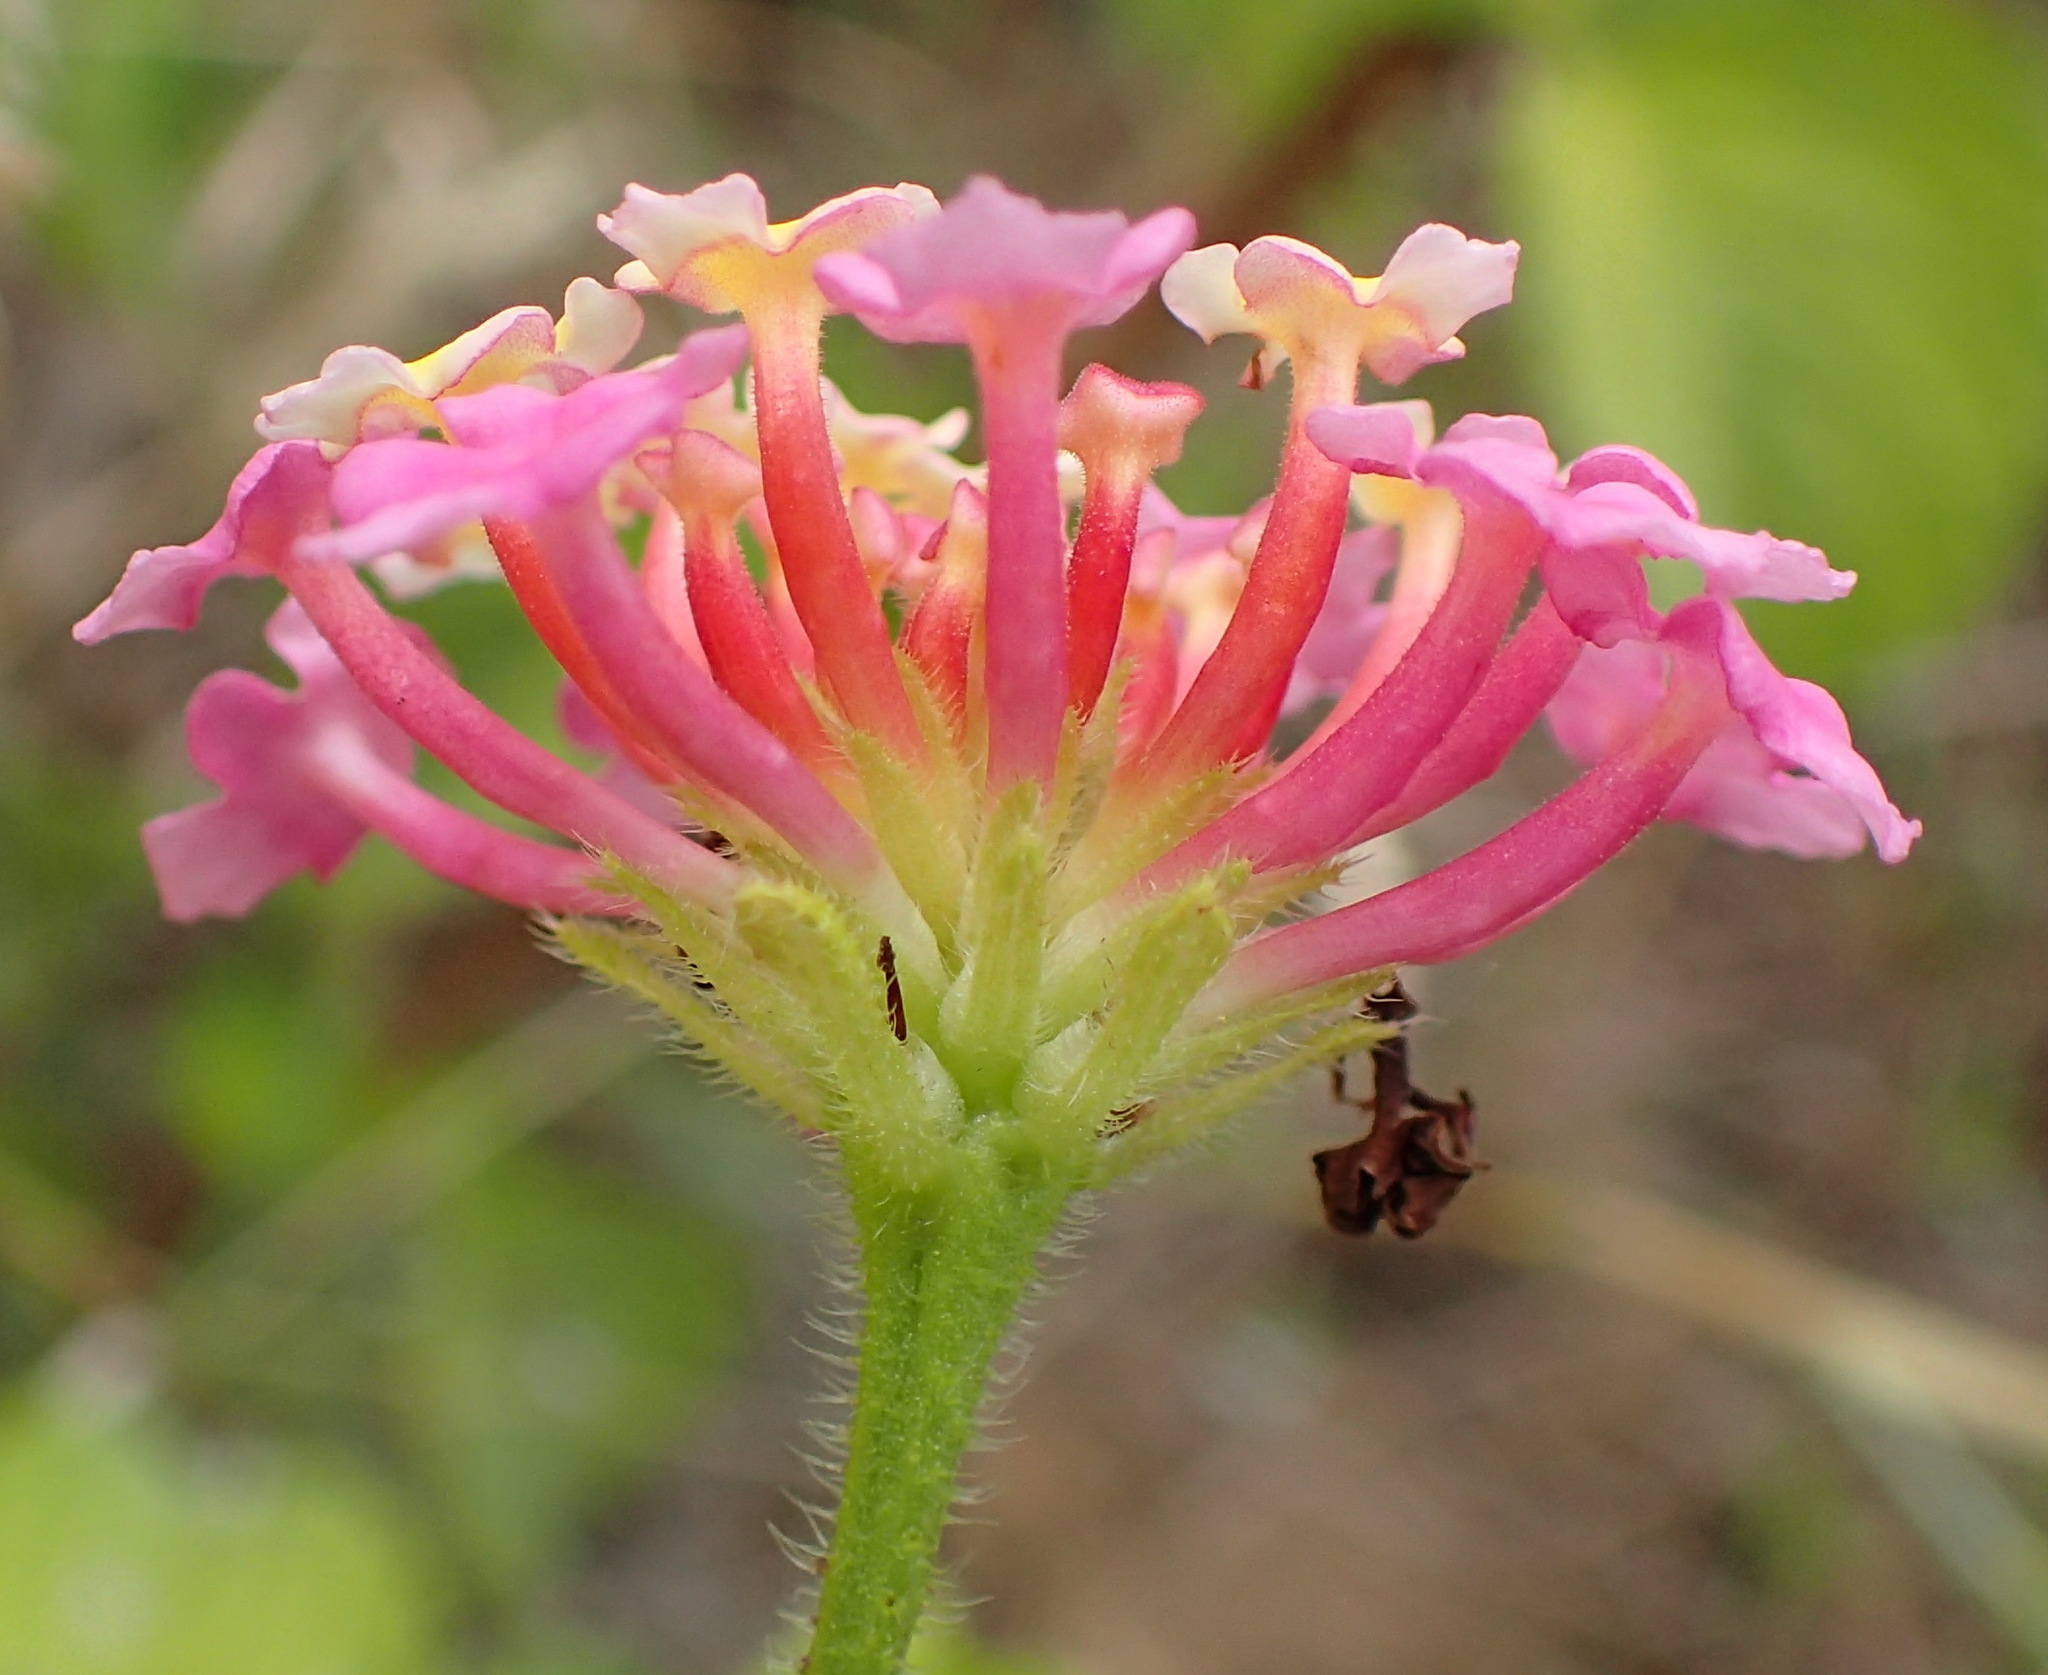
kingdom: Plantae
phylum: Tracheophyta
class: Magnoliopsida
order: Lamiales
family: Verbenaceae
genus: Lantana
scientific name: Lantana camara
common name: Lantana
